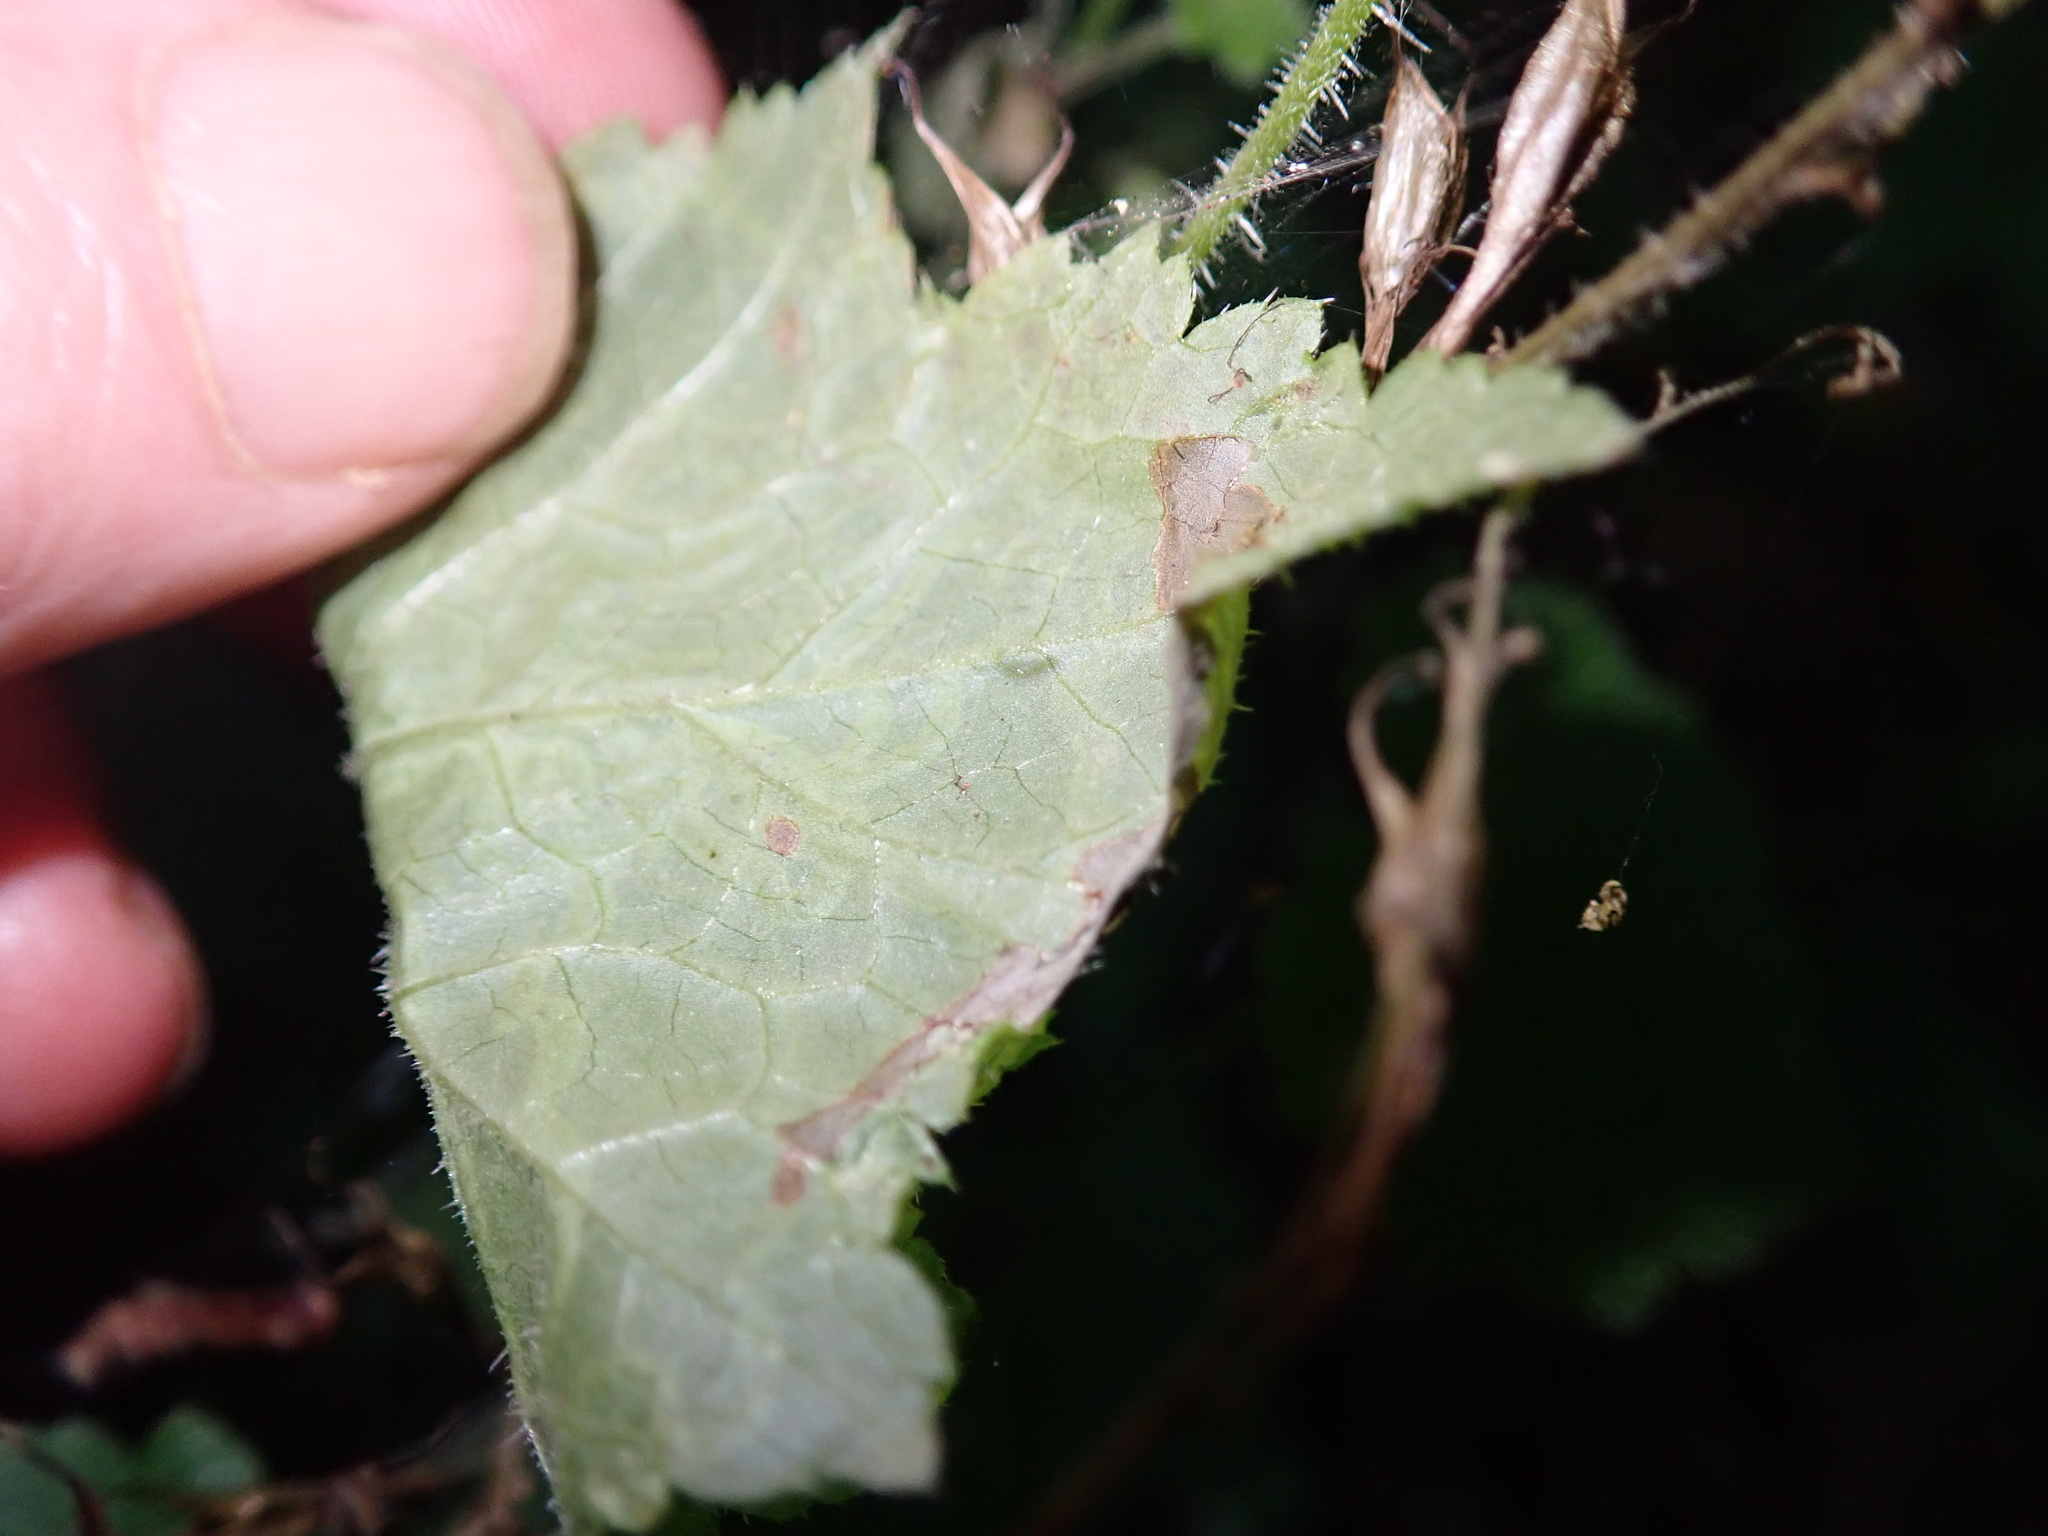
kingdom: Animalia
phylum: Arthropoda
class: Insecta
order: Diptera
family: Agromyzidae
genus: Phytomyza
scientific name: Phytomyza tiarellae
